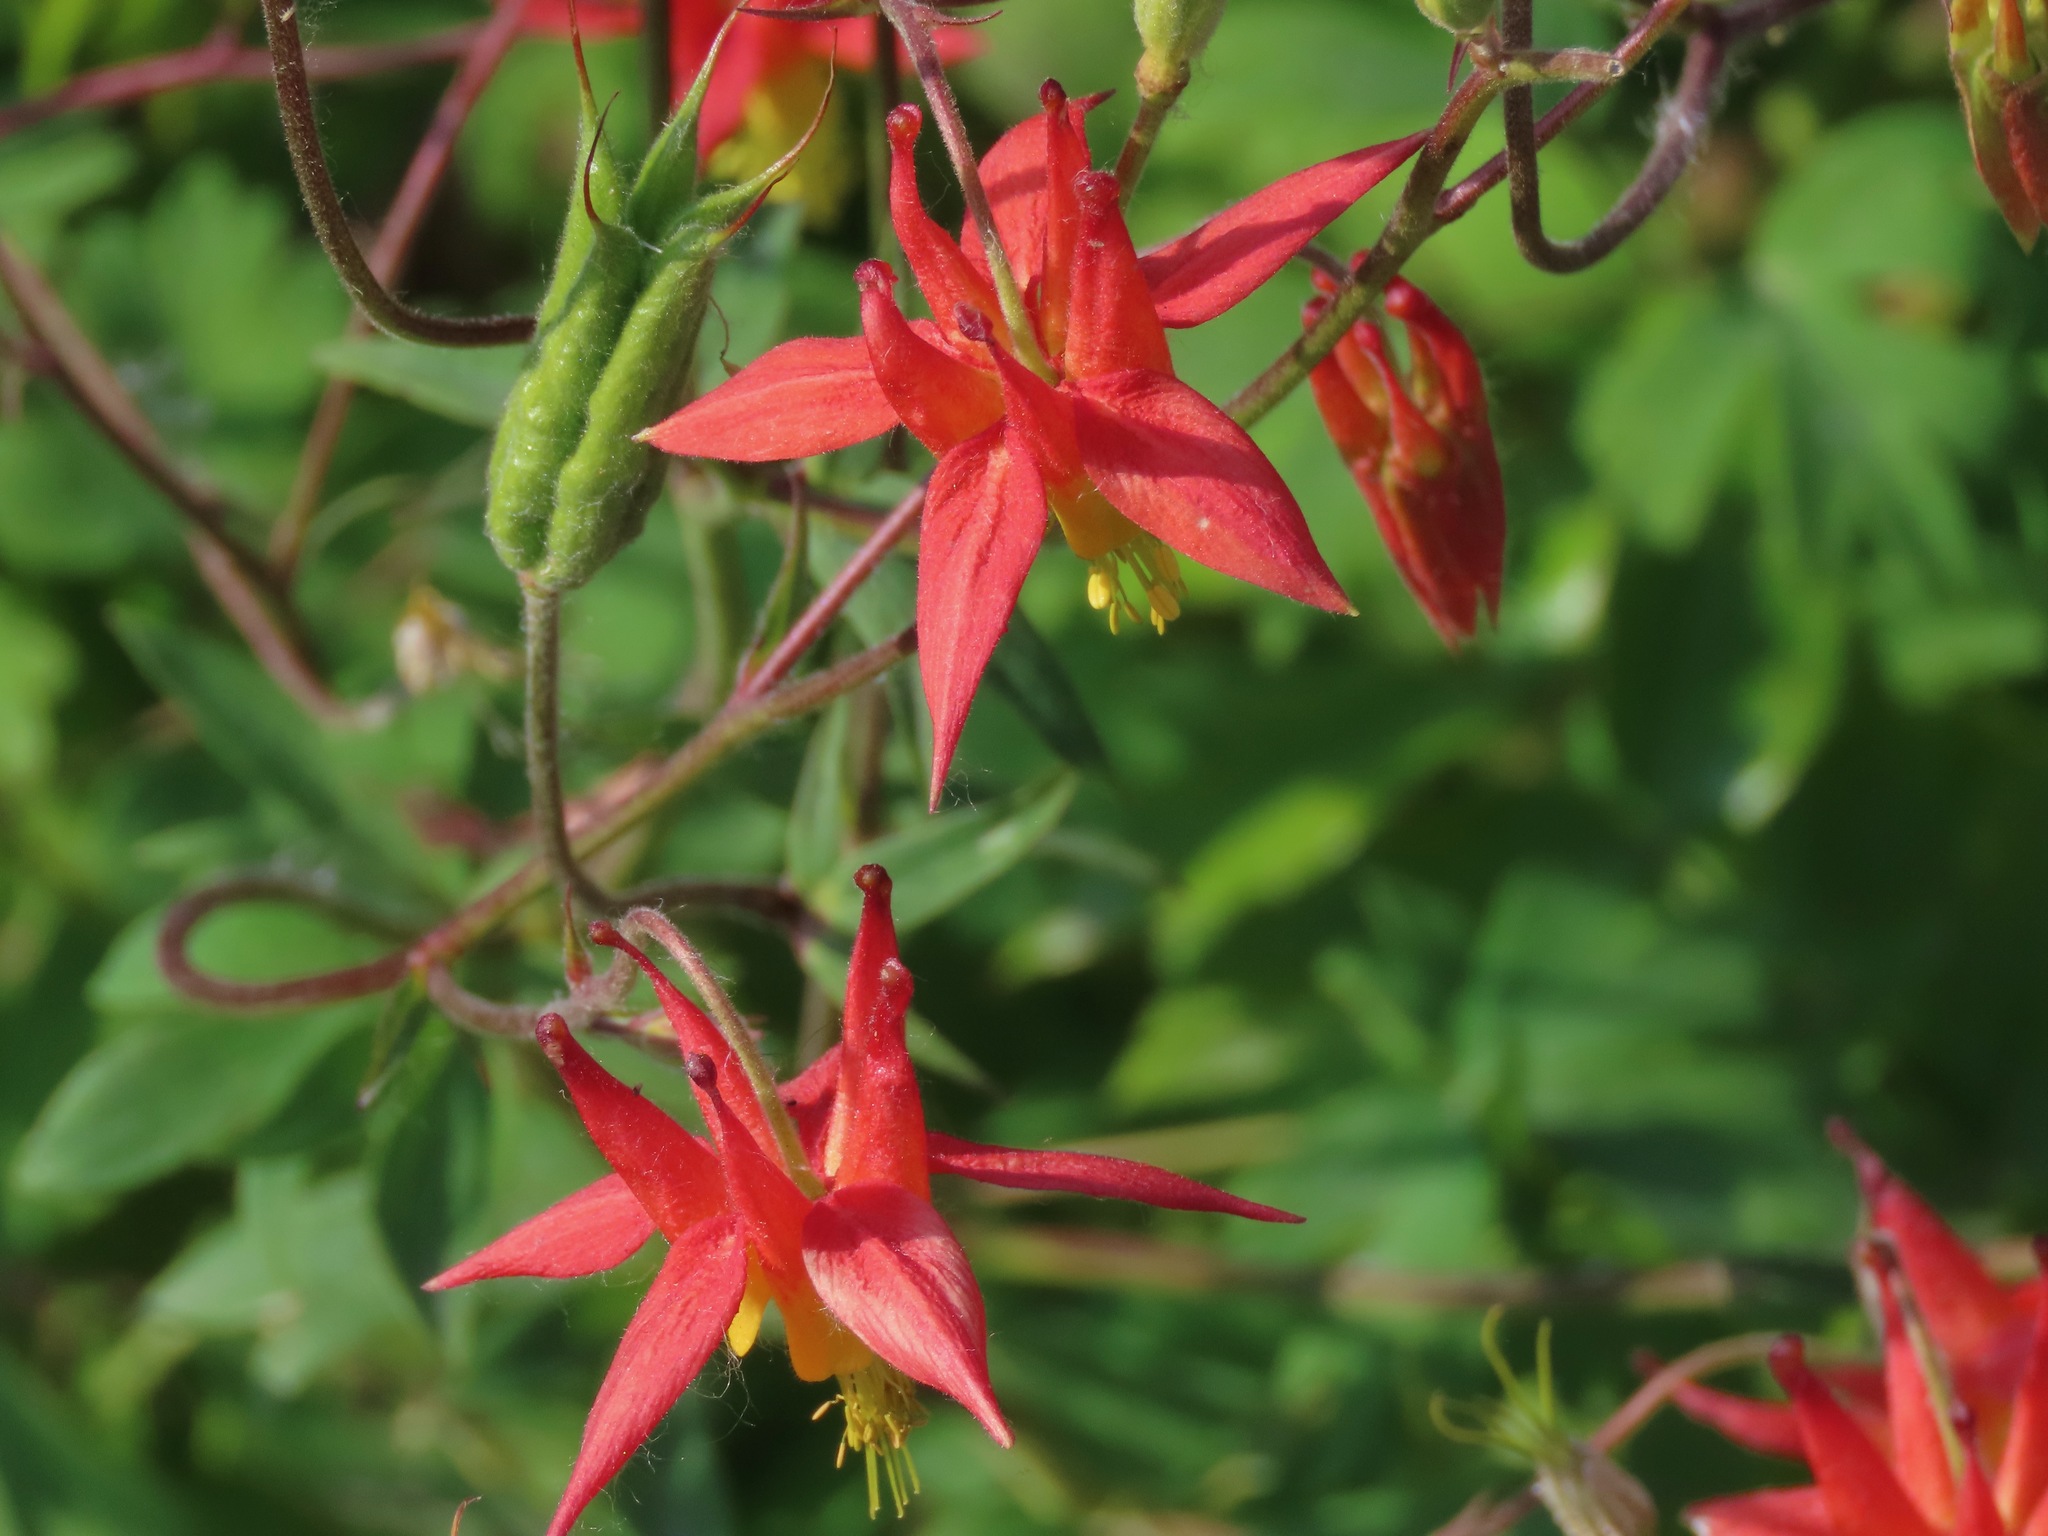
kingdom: Plantae
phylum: Tracheophyta
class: Magnoliopsida
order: Ranunculales
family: Ranunculaceae
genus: Aquilegia
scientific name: Aquilegia formosa
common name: Sitka columbine
